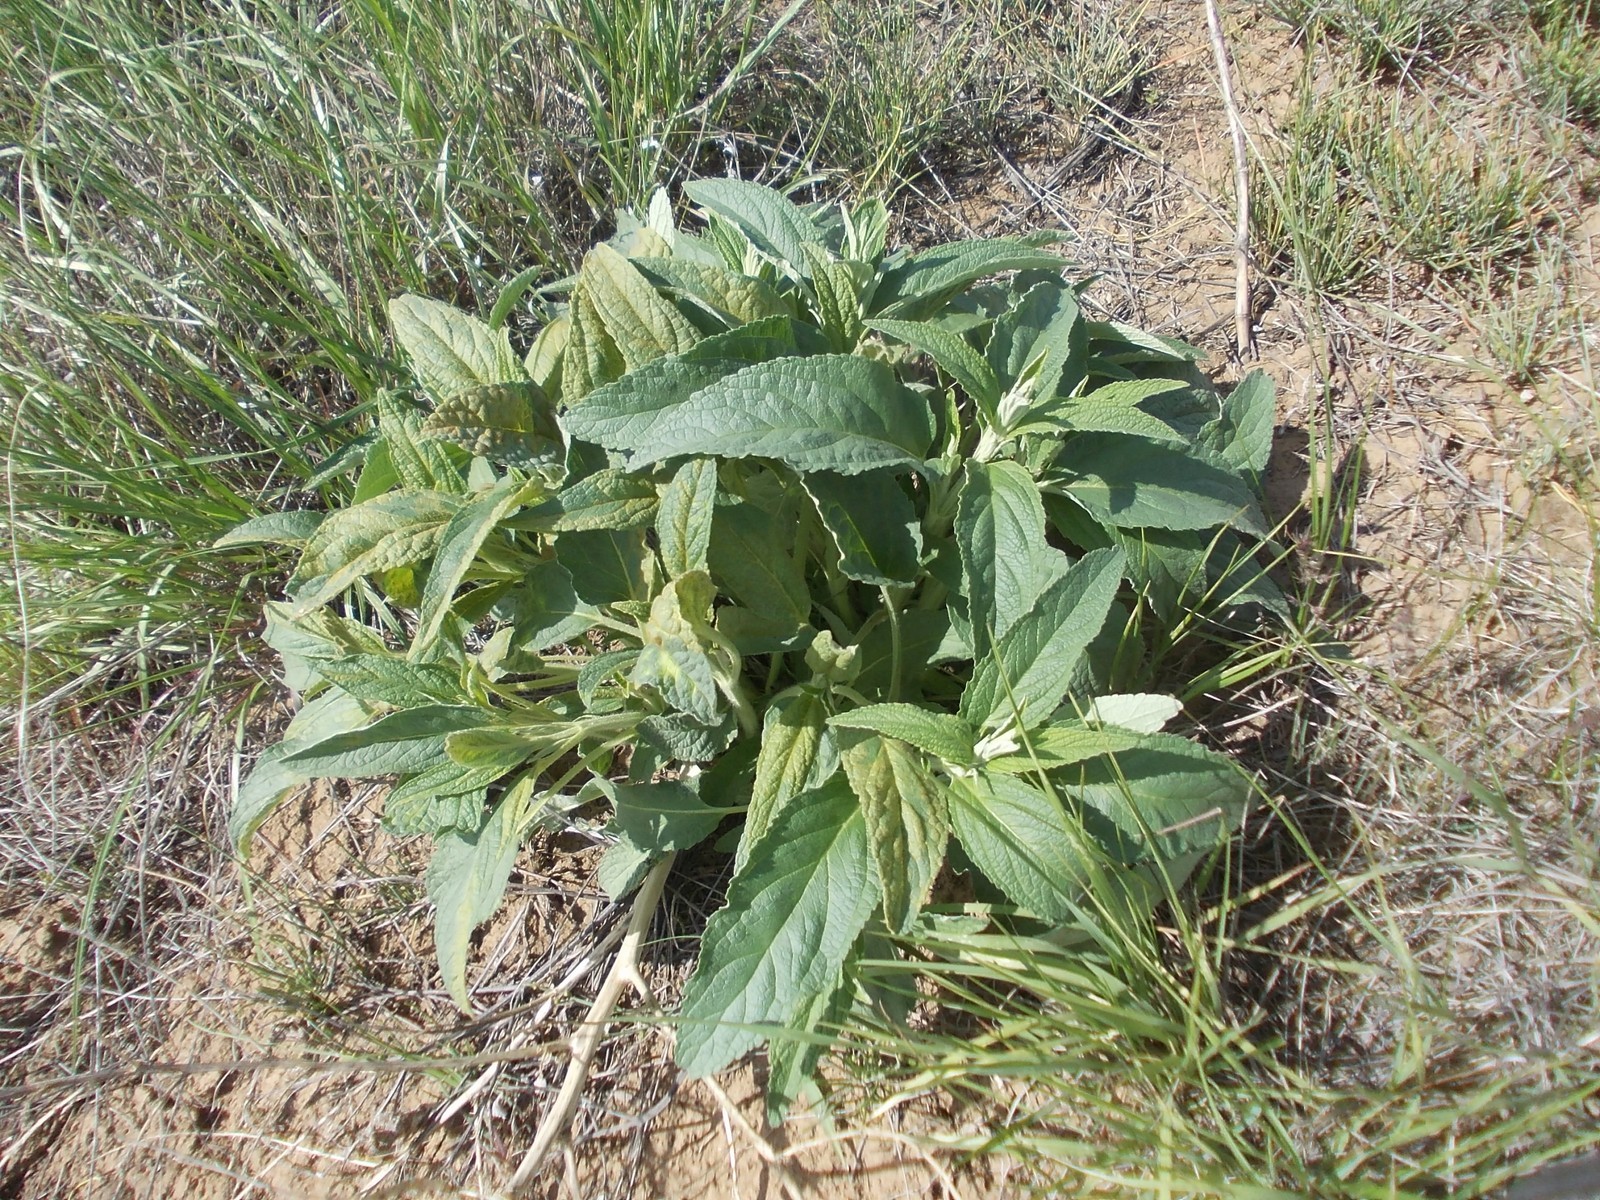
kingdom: Plantae
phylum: Tracheophyta
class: Magnoliopsida
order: Lamiales
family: Lamiaceae
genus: Phlomis
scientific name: Phlomis herba-venti
